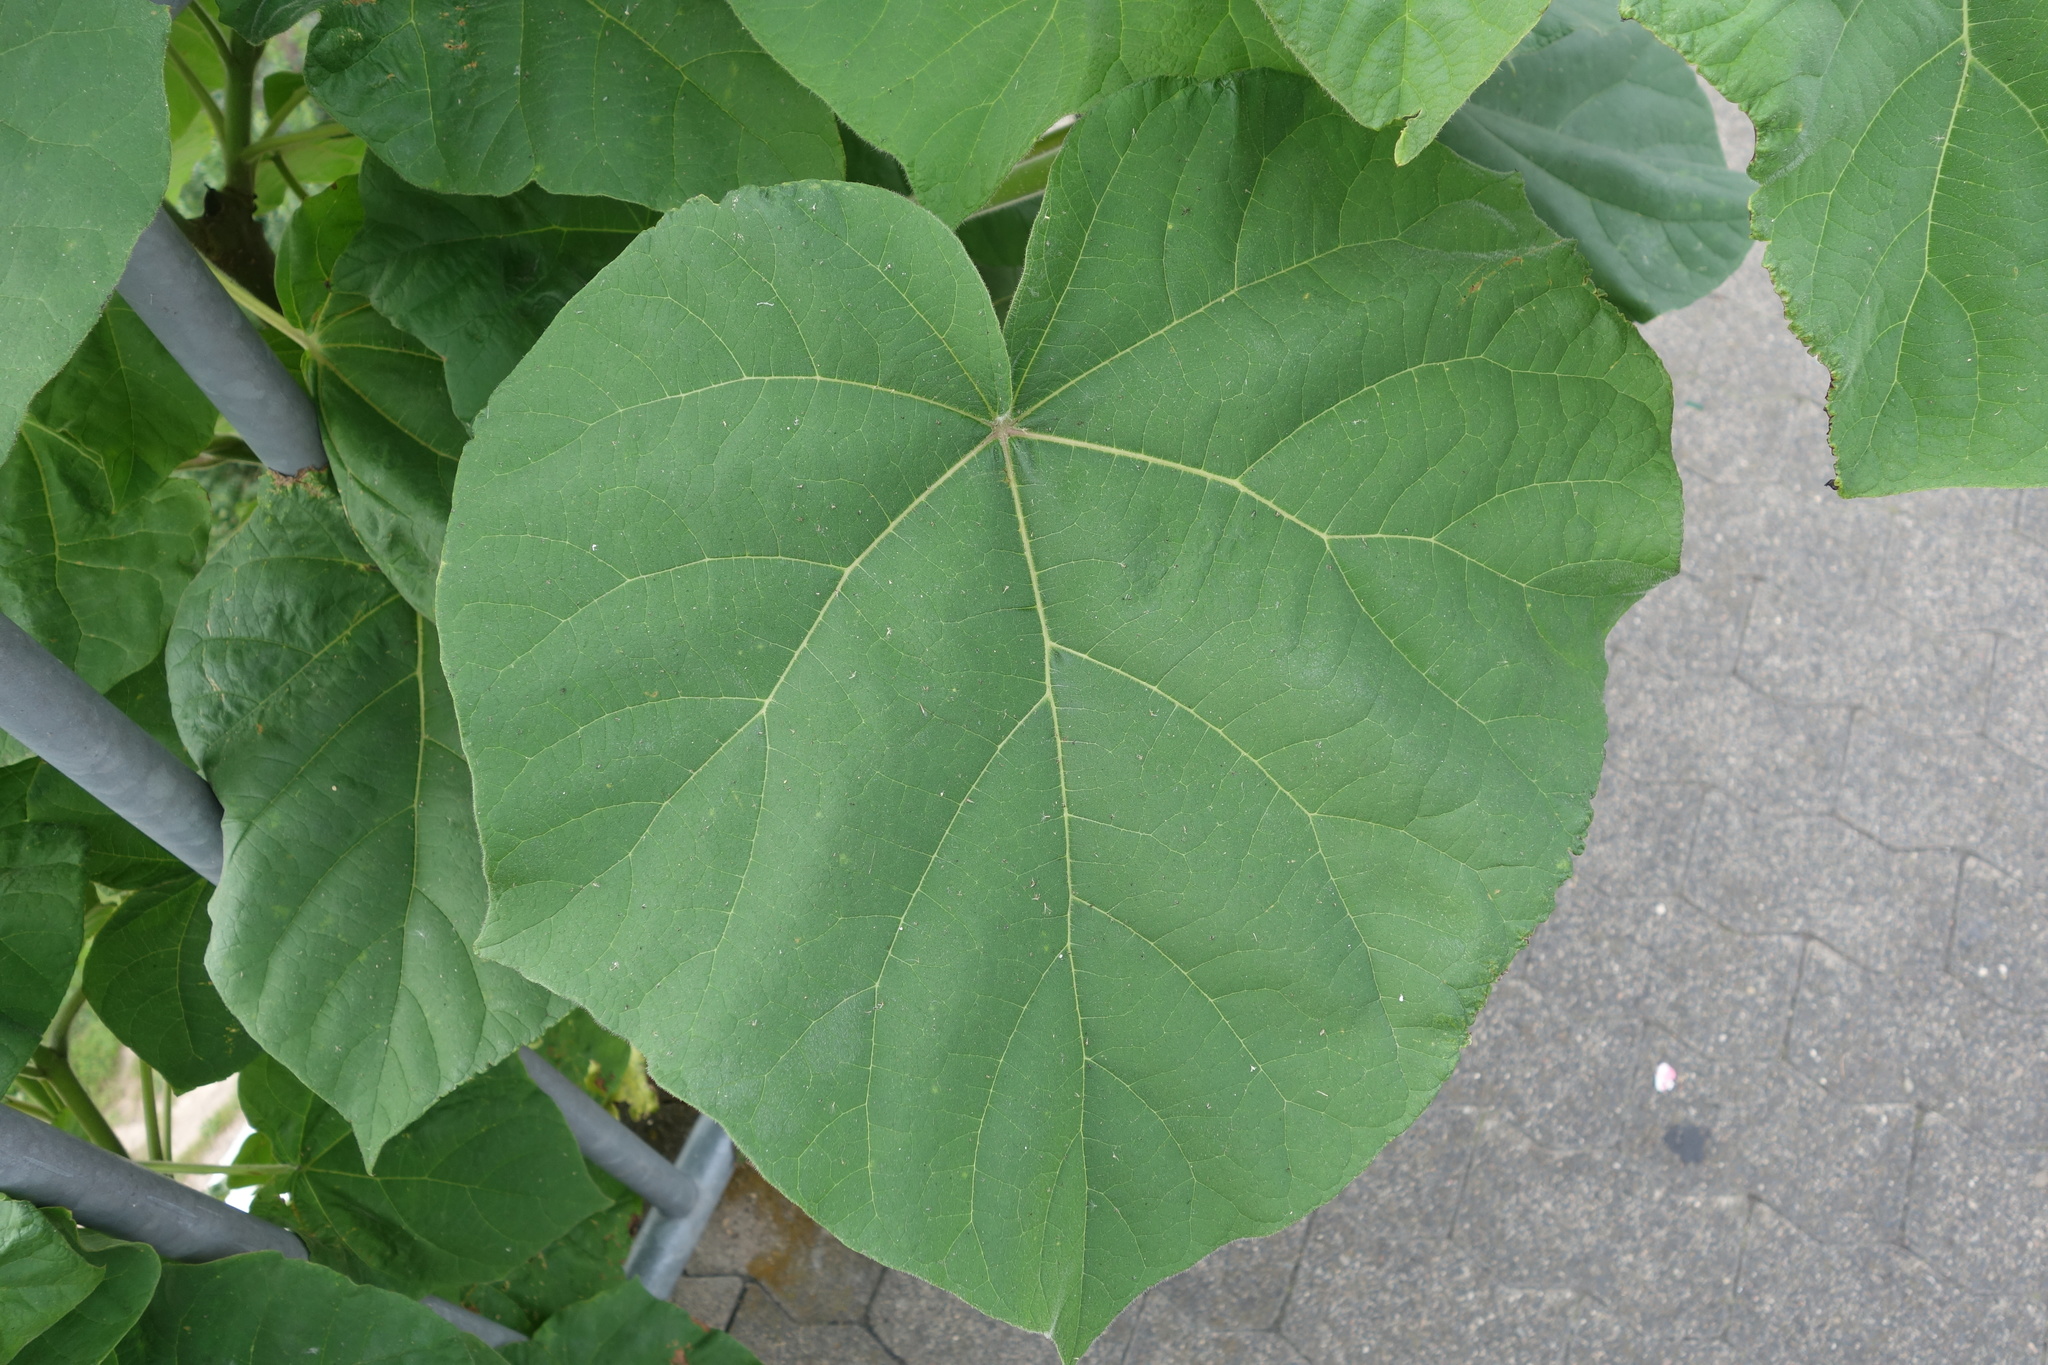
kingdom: Plantae
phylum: Tracheophyta
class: Magnoliopsida
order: Lamiales
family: Paulowniaceae
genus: Paulownia
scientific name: Paulownia tomentosa
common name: Foxglove-tree
